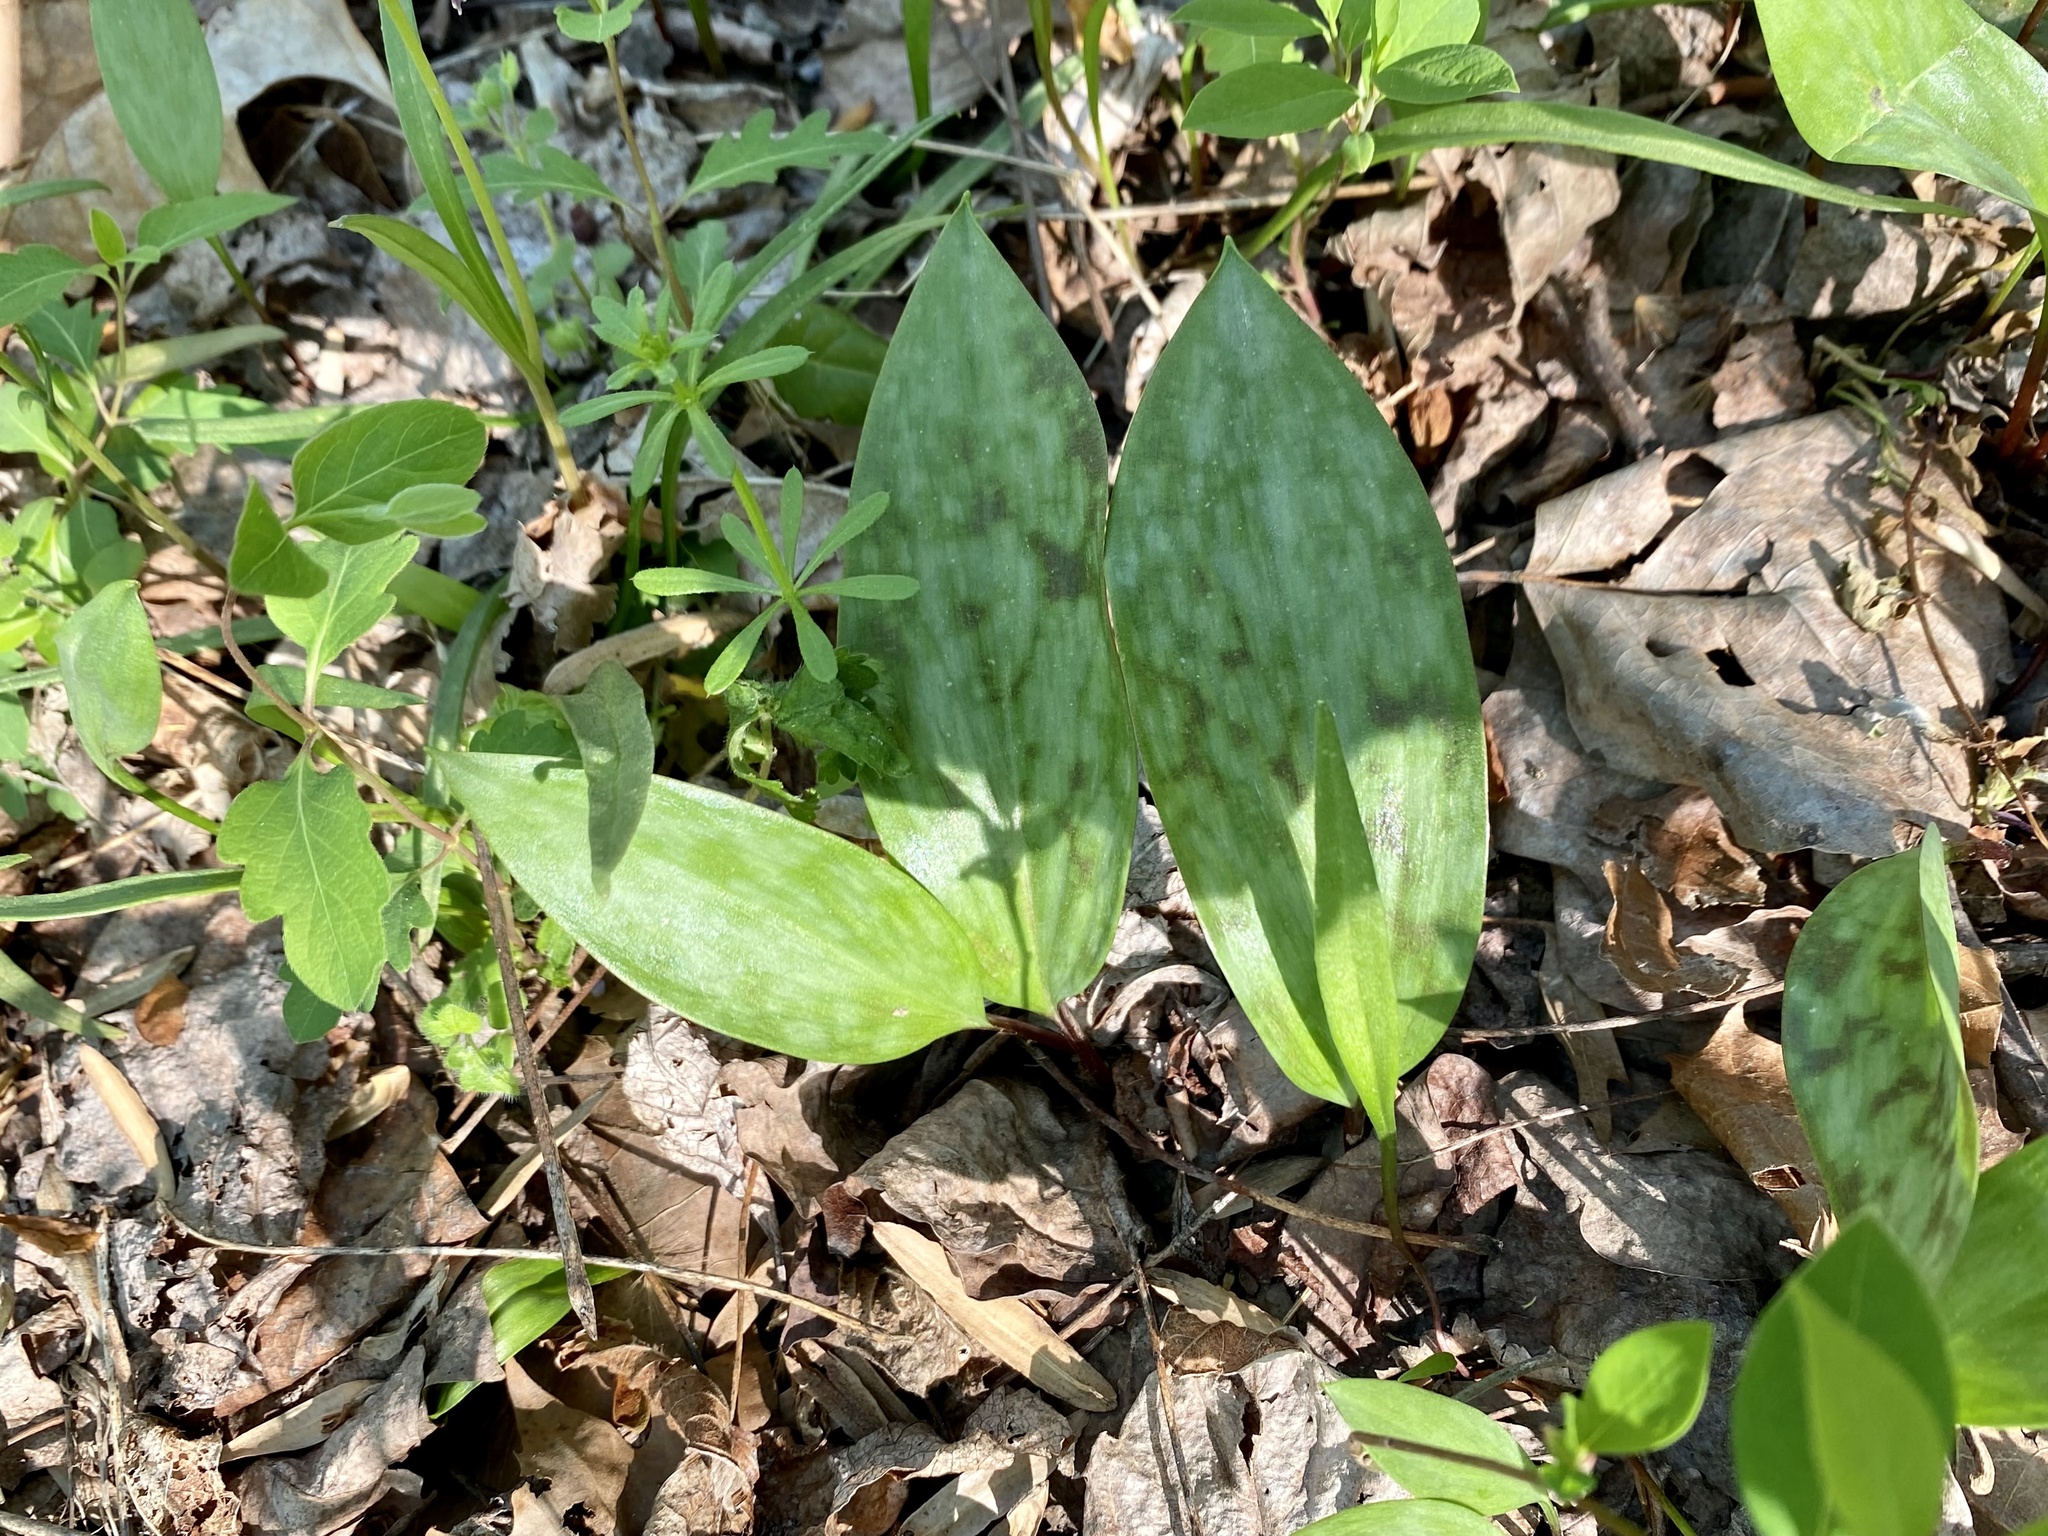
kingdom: Plantae
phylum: Tracheophyta
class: Liliopsida
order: Liliales
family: Liliaceae
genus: Erythronium
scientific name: Erythronium americanum
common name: Yellow adder's-tongue
